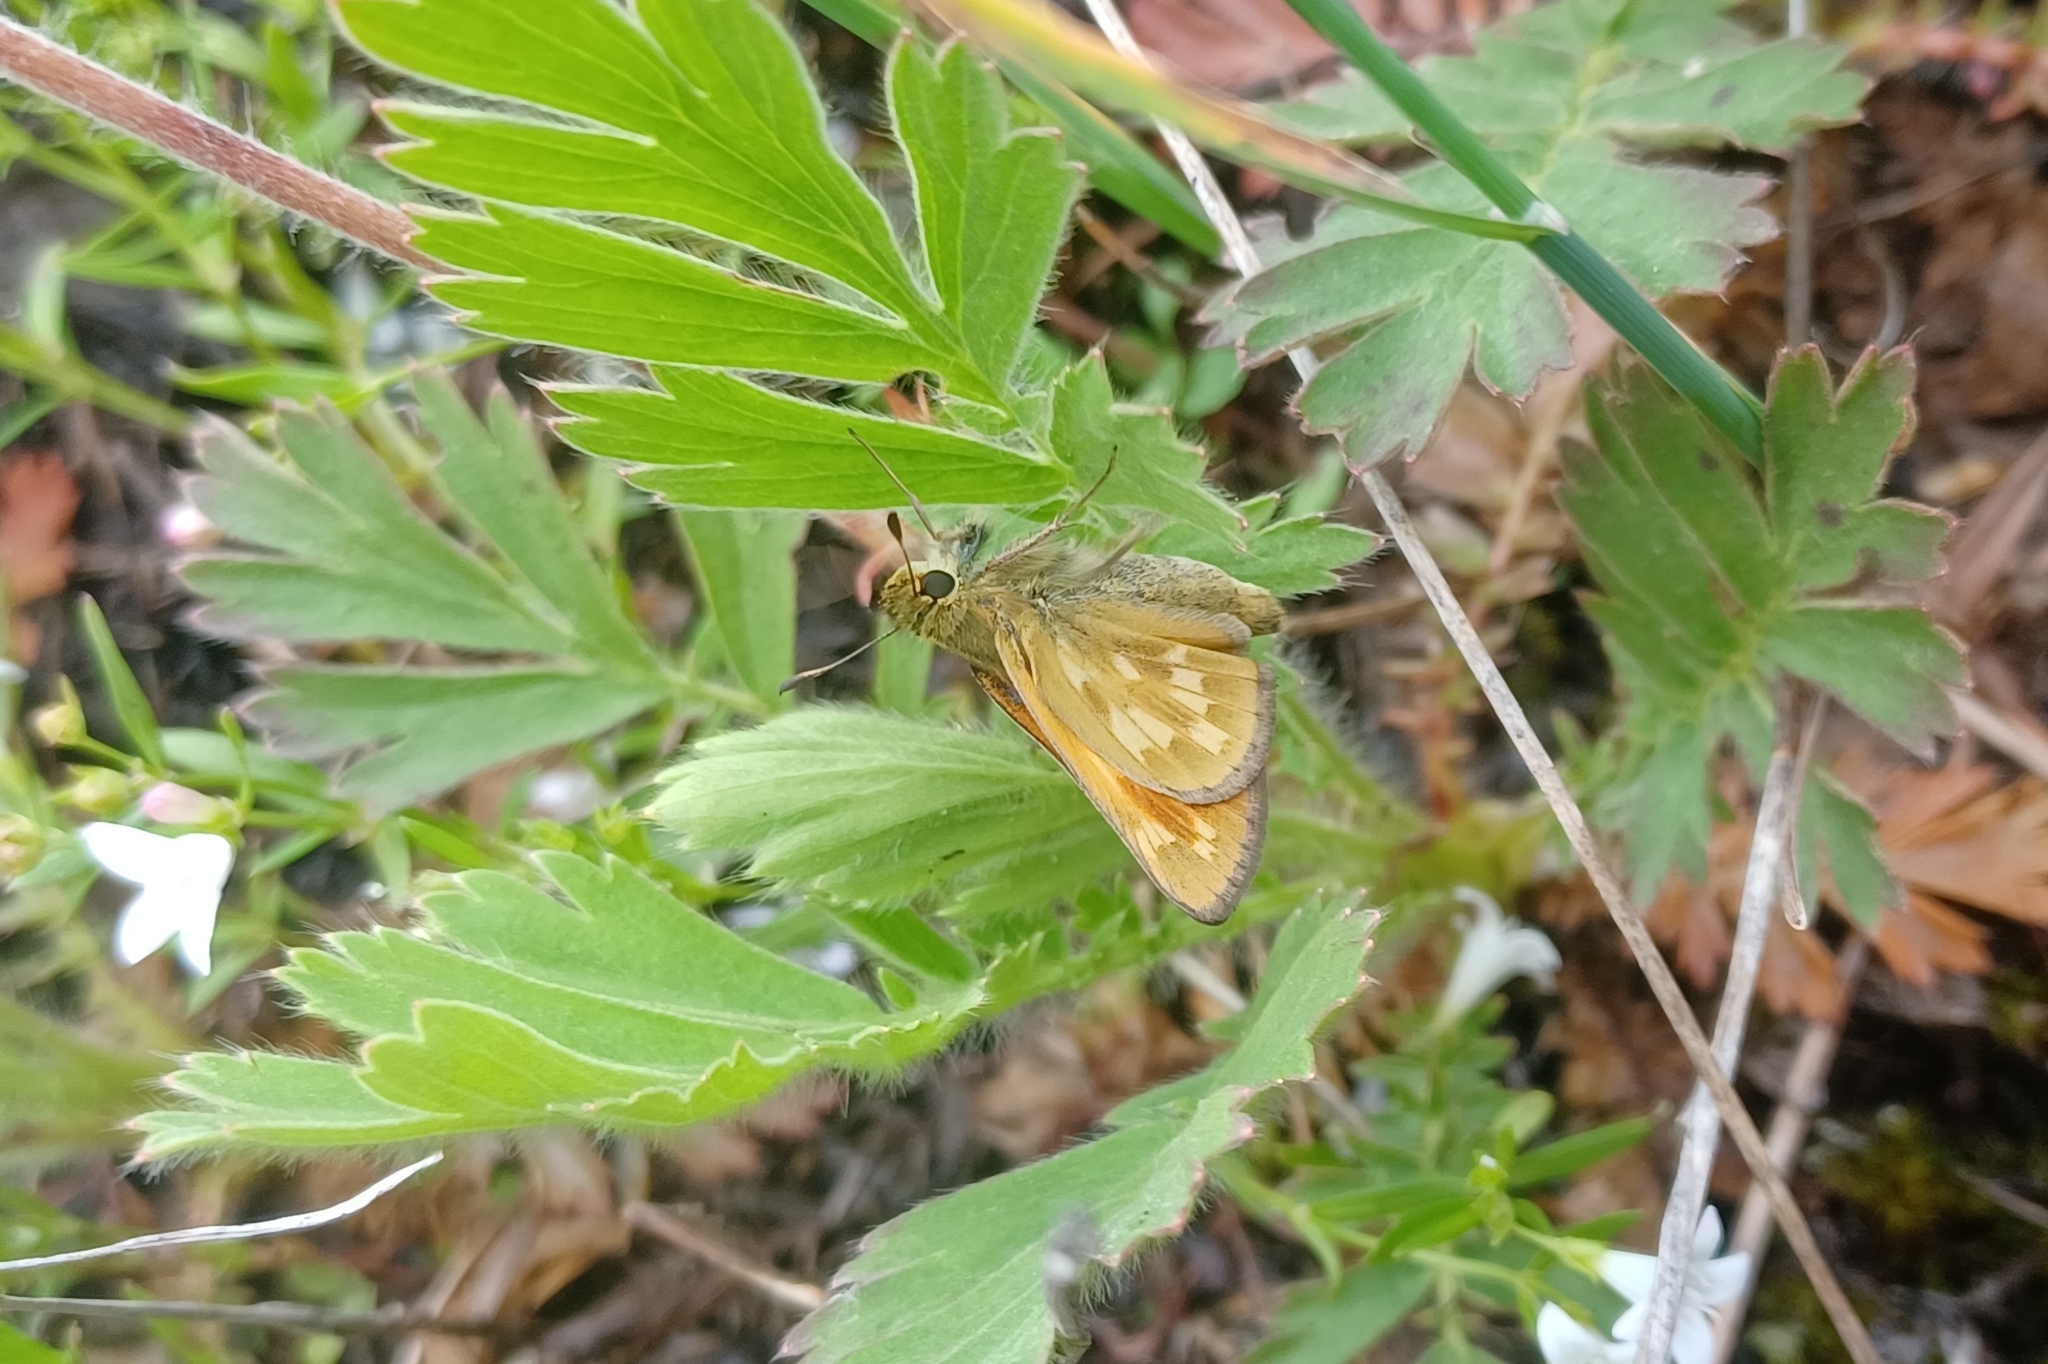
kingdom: Animalia
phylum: Arthropoda
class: Insecta
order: Lepidoptera
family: Hesperiidae
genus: Hesperia
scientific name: Hesperia sassacus
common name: Indian skipper
